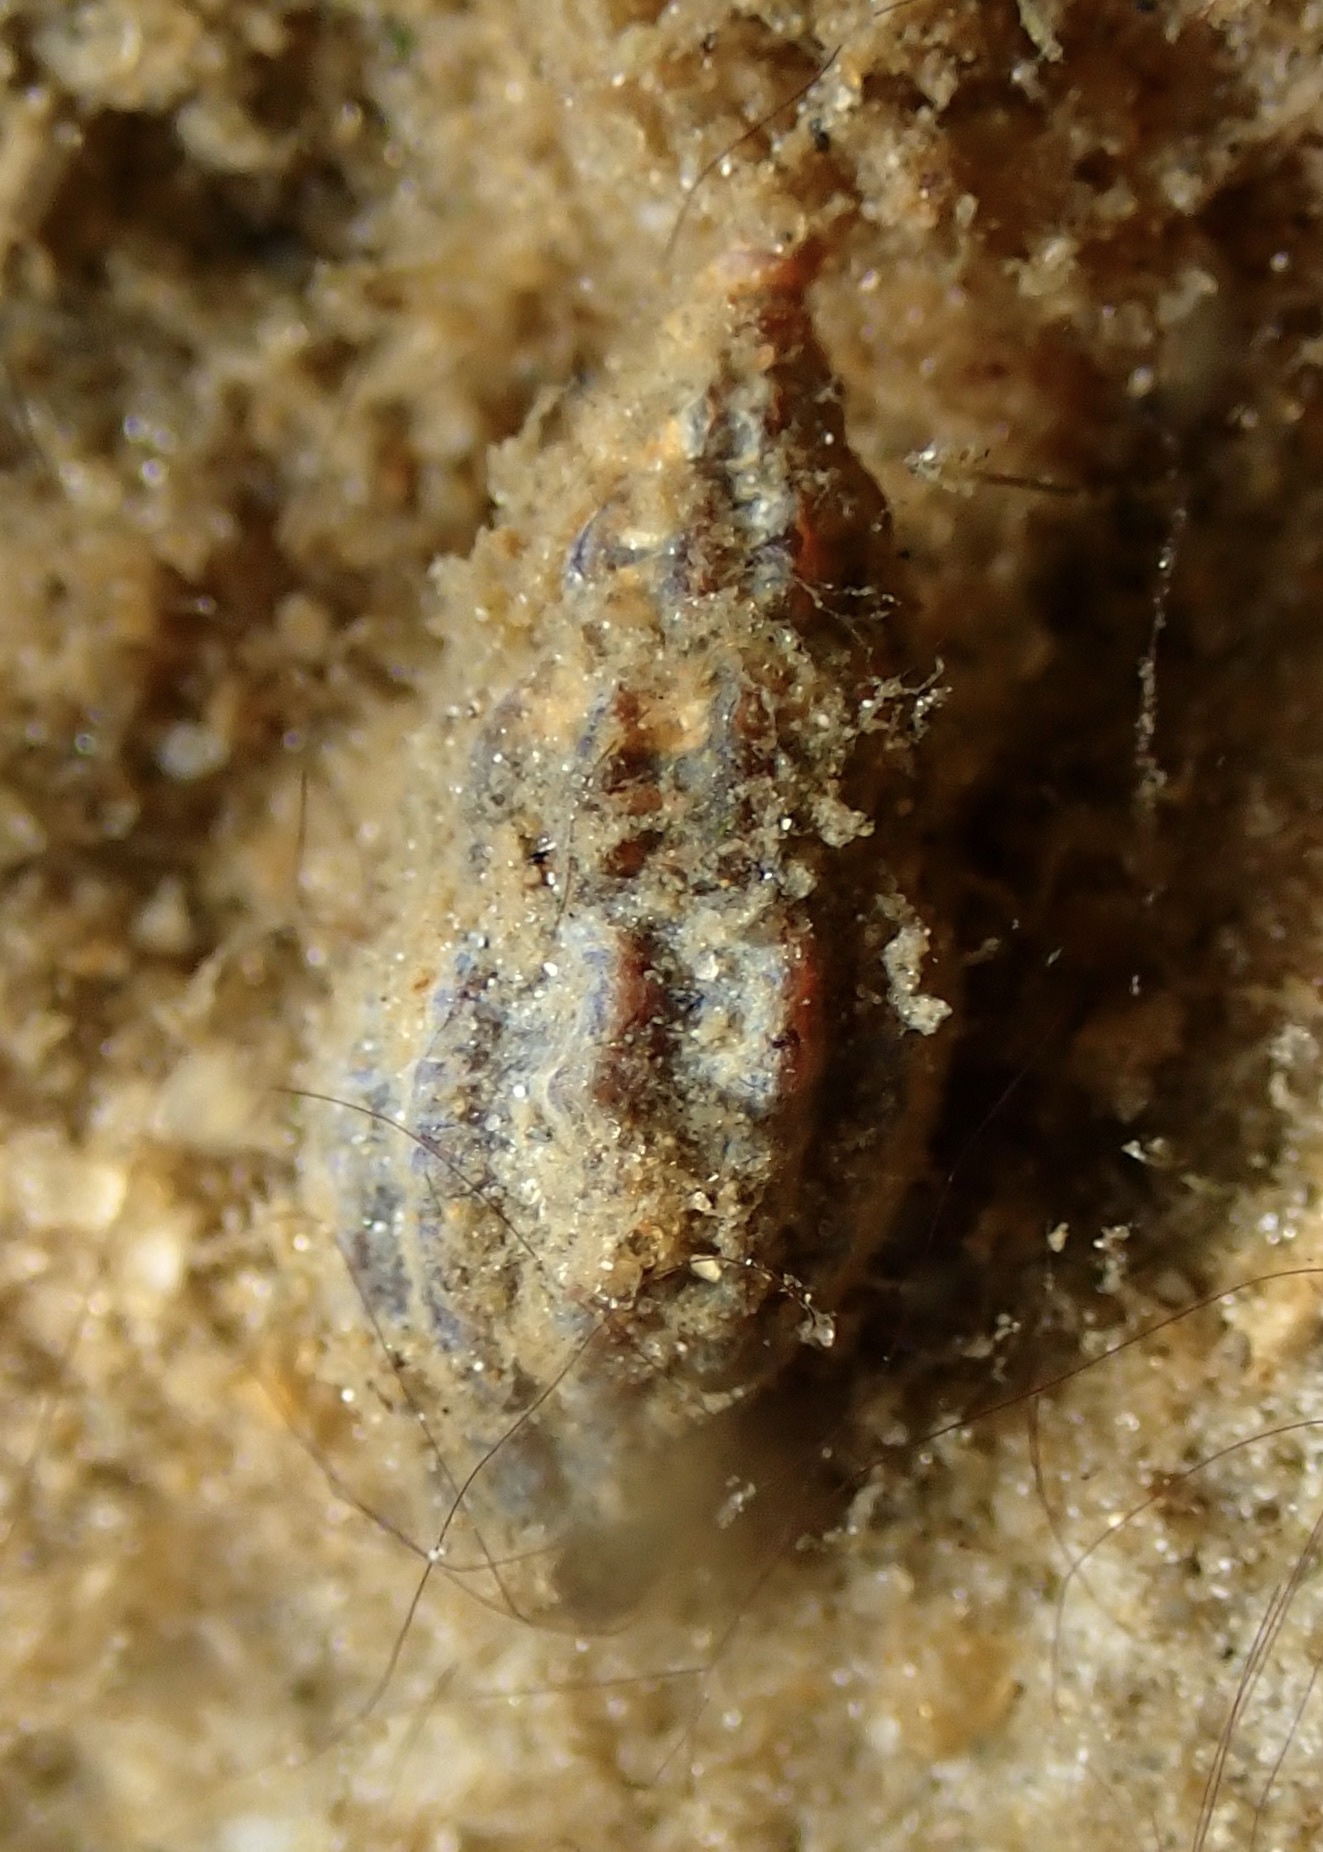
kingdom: Animalia
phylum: Mollusca
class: Gastropoda
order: Neogastropoda
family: Mangeliidae
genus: Pyrgocythara
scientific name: Pyrgocythara plicosa
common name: Plicate mangelia
